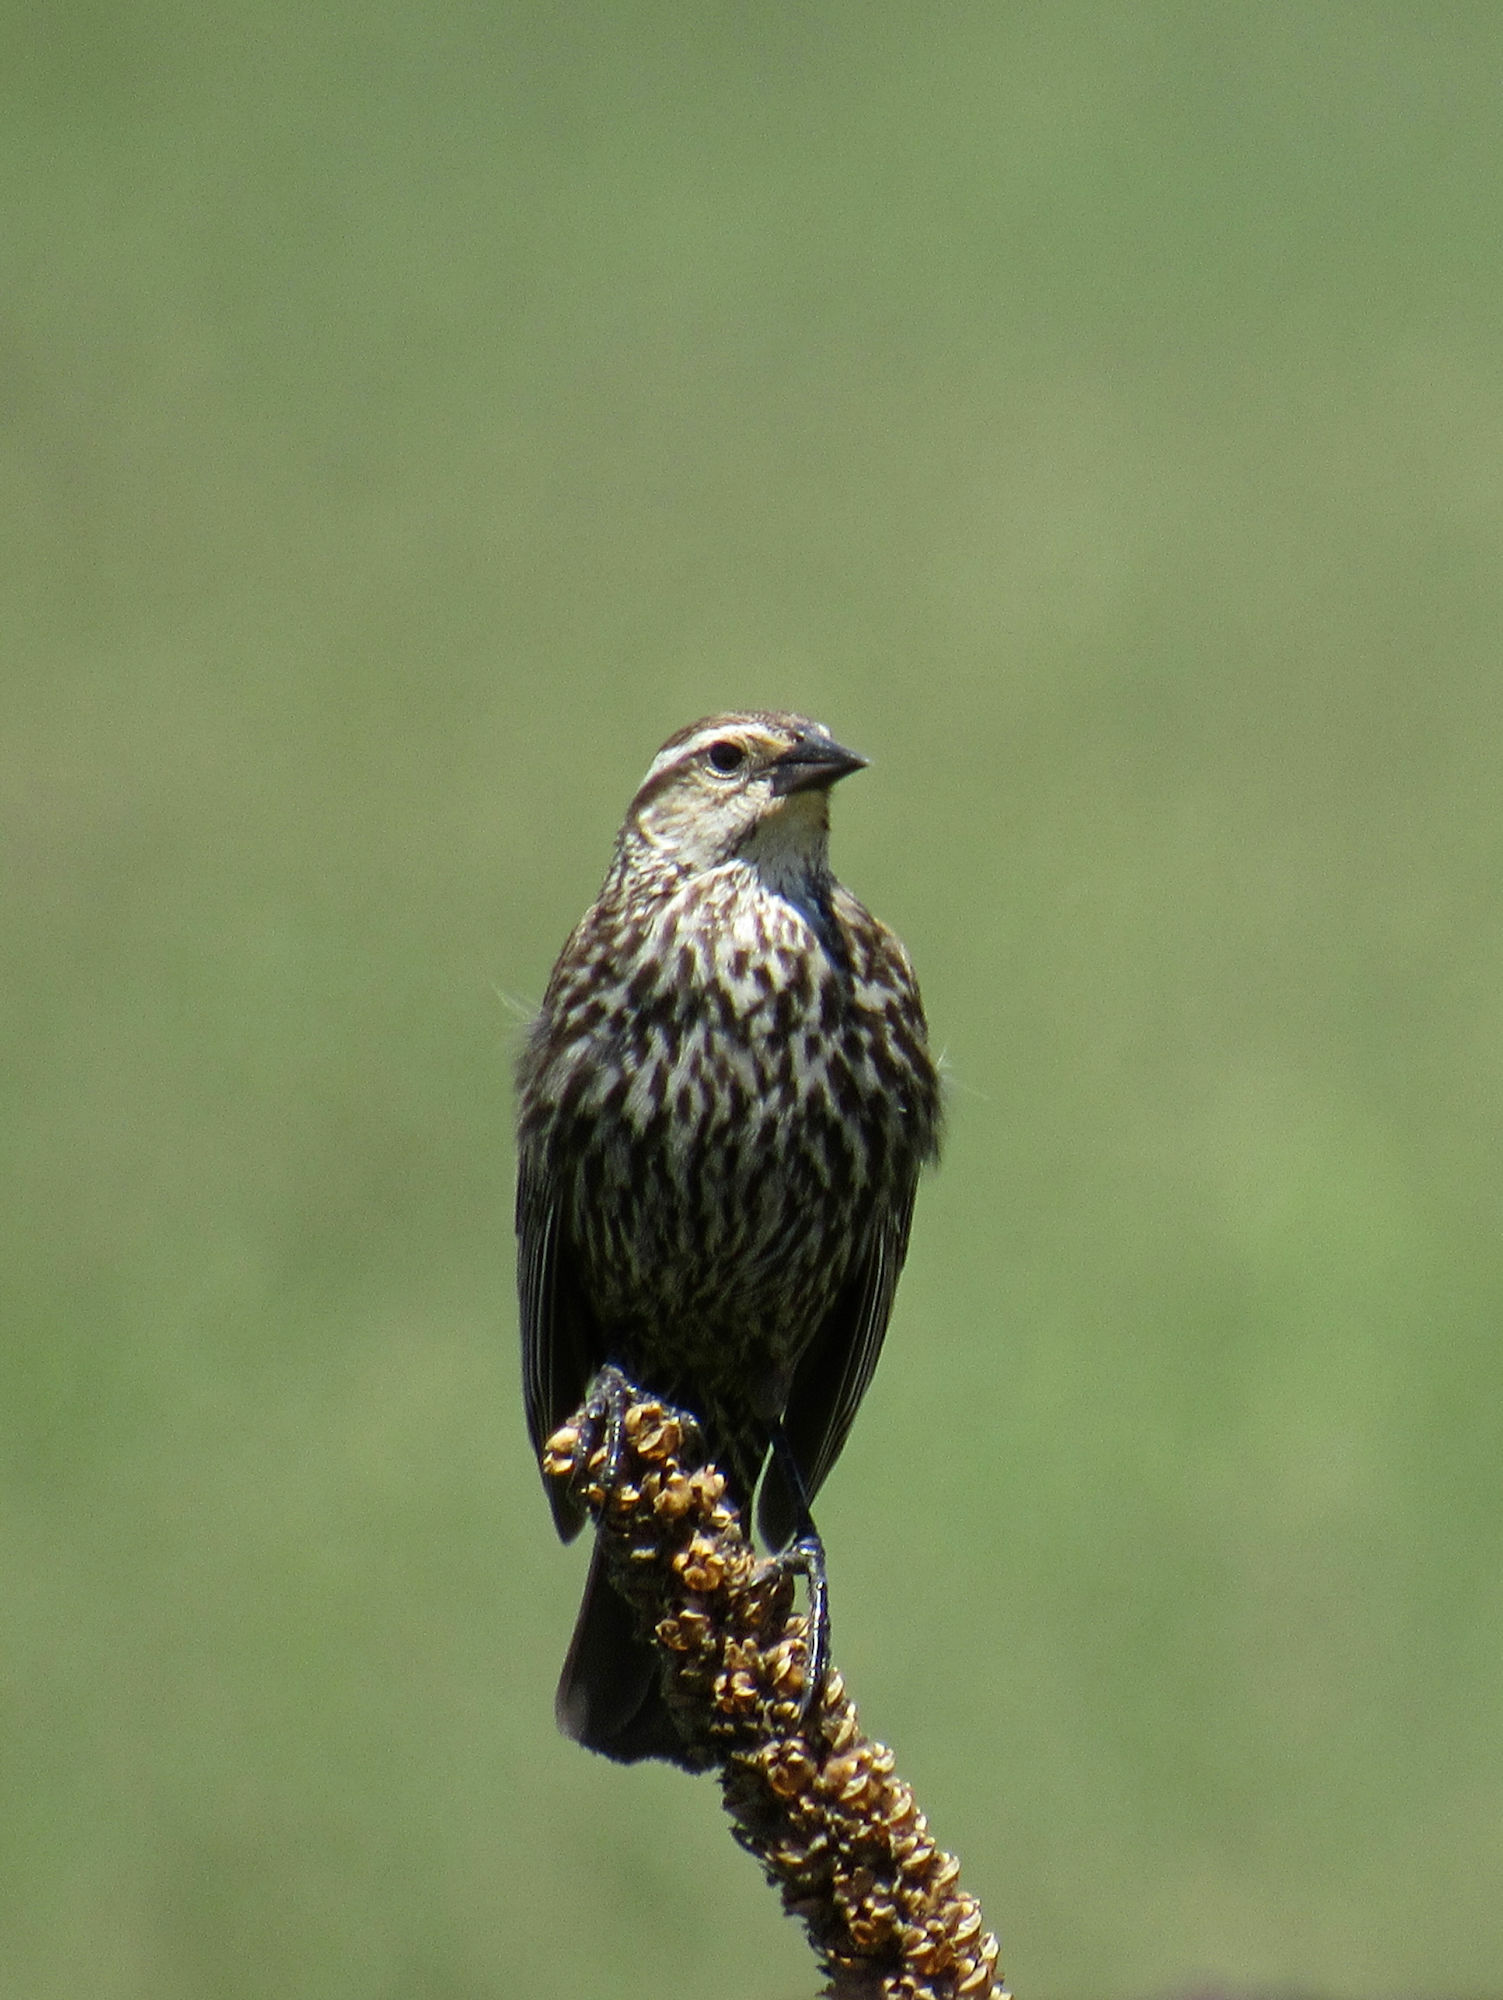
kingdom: Animalia
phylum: Chordata
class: Aves
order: Passeriformes
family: Icteridae
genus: Agelaius
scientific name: Agelaius phoeniceus
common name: Red-winged blackbird
